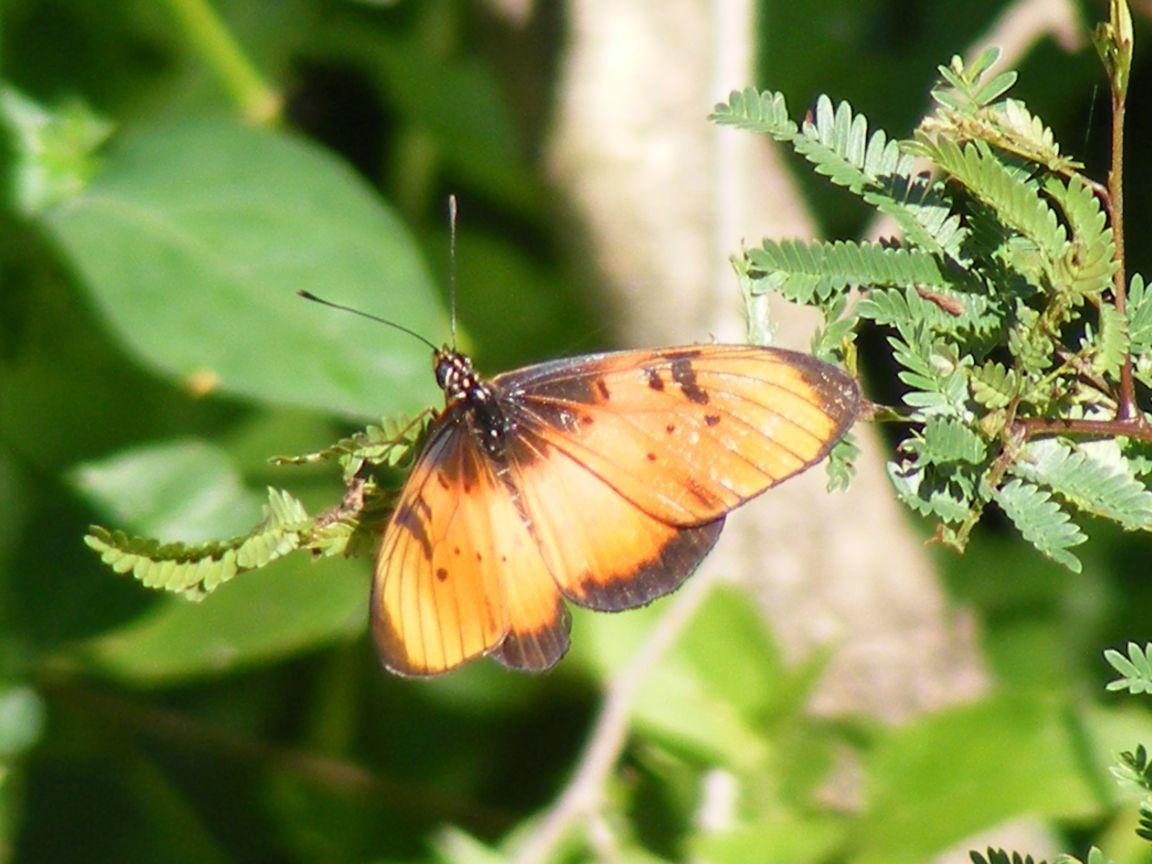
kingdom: Animalia
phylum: Arthropoda
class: Insecta
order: Lepidoptera
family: Nymphalidae
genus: Stephenia
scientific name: Stephenia
